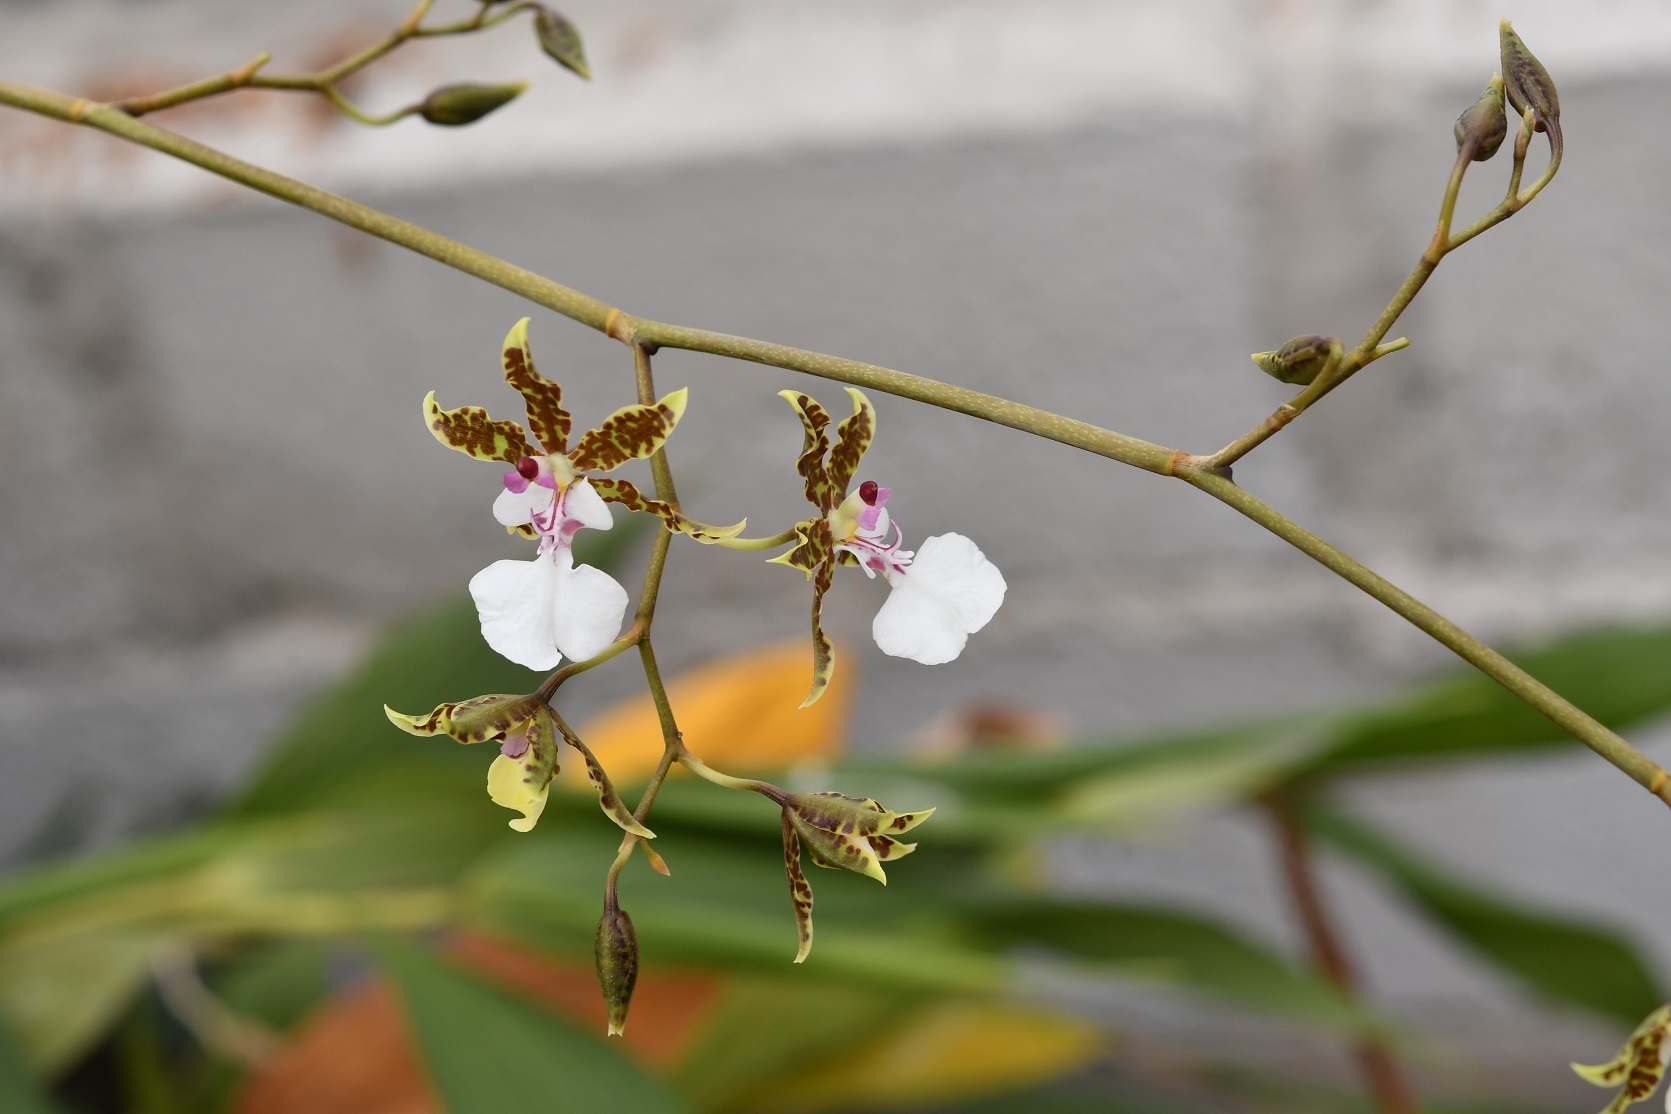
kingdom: Plantae
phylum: Tracheophyta
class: Liliopsida
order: Asparagales
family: Orchidaceae
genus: Oncidium
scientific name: Oncidium leucochilum
